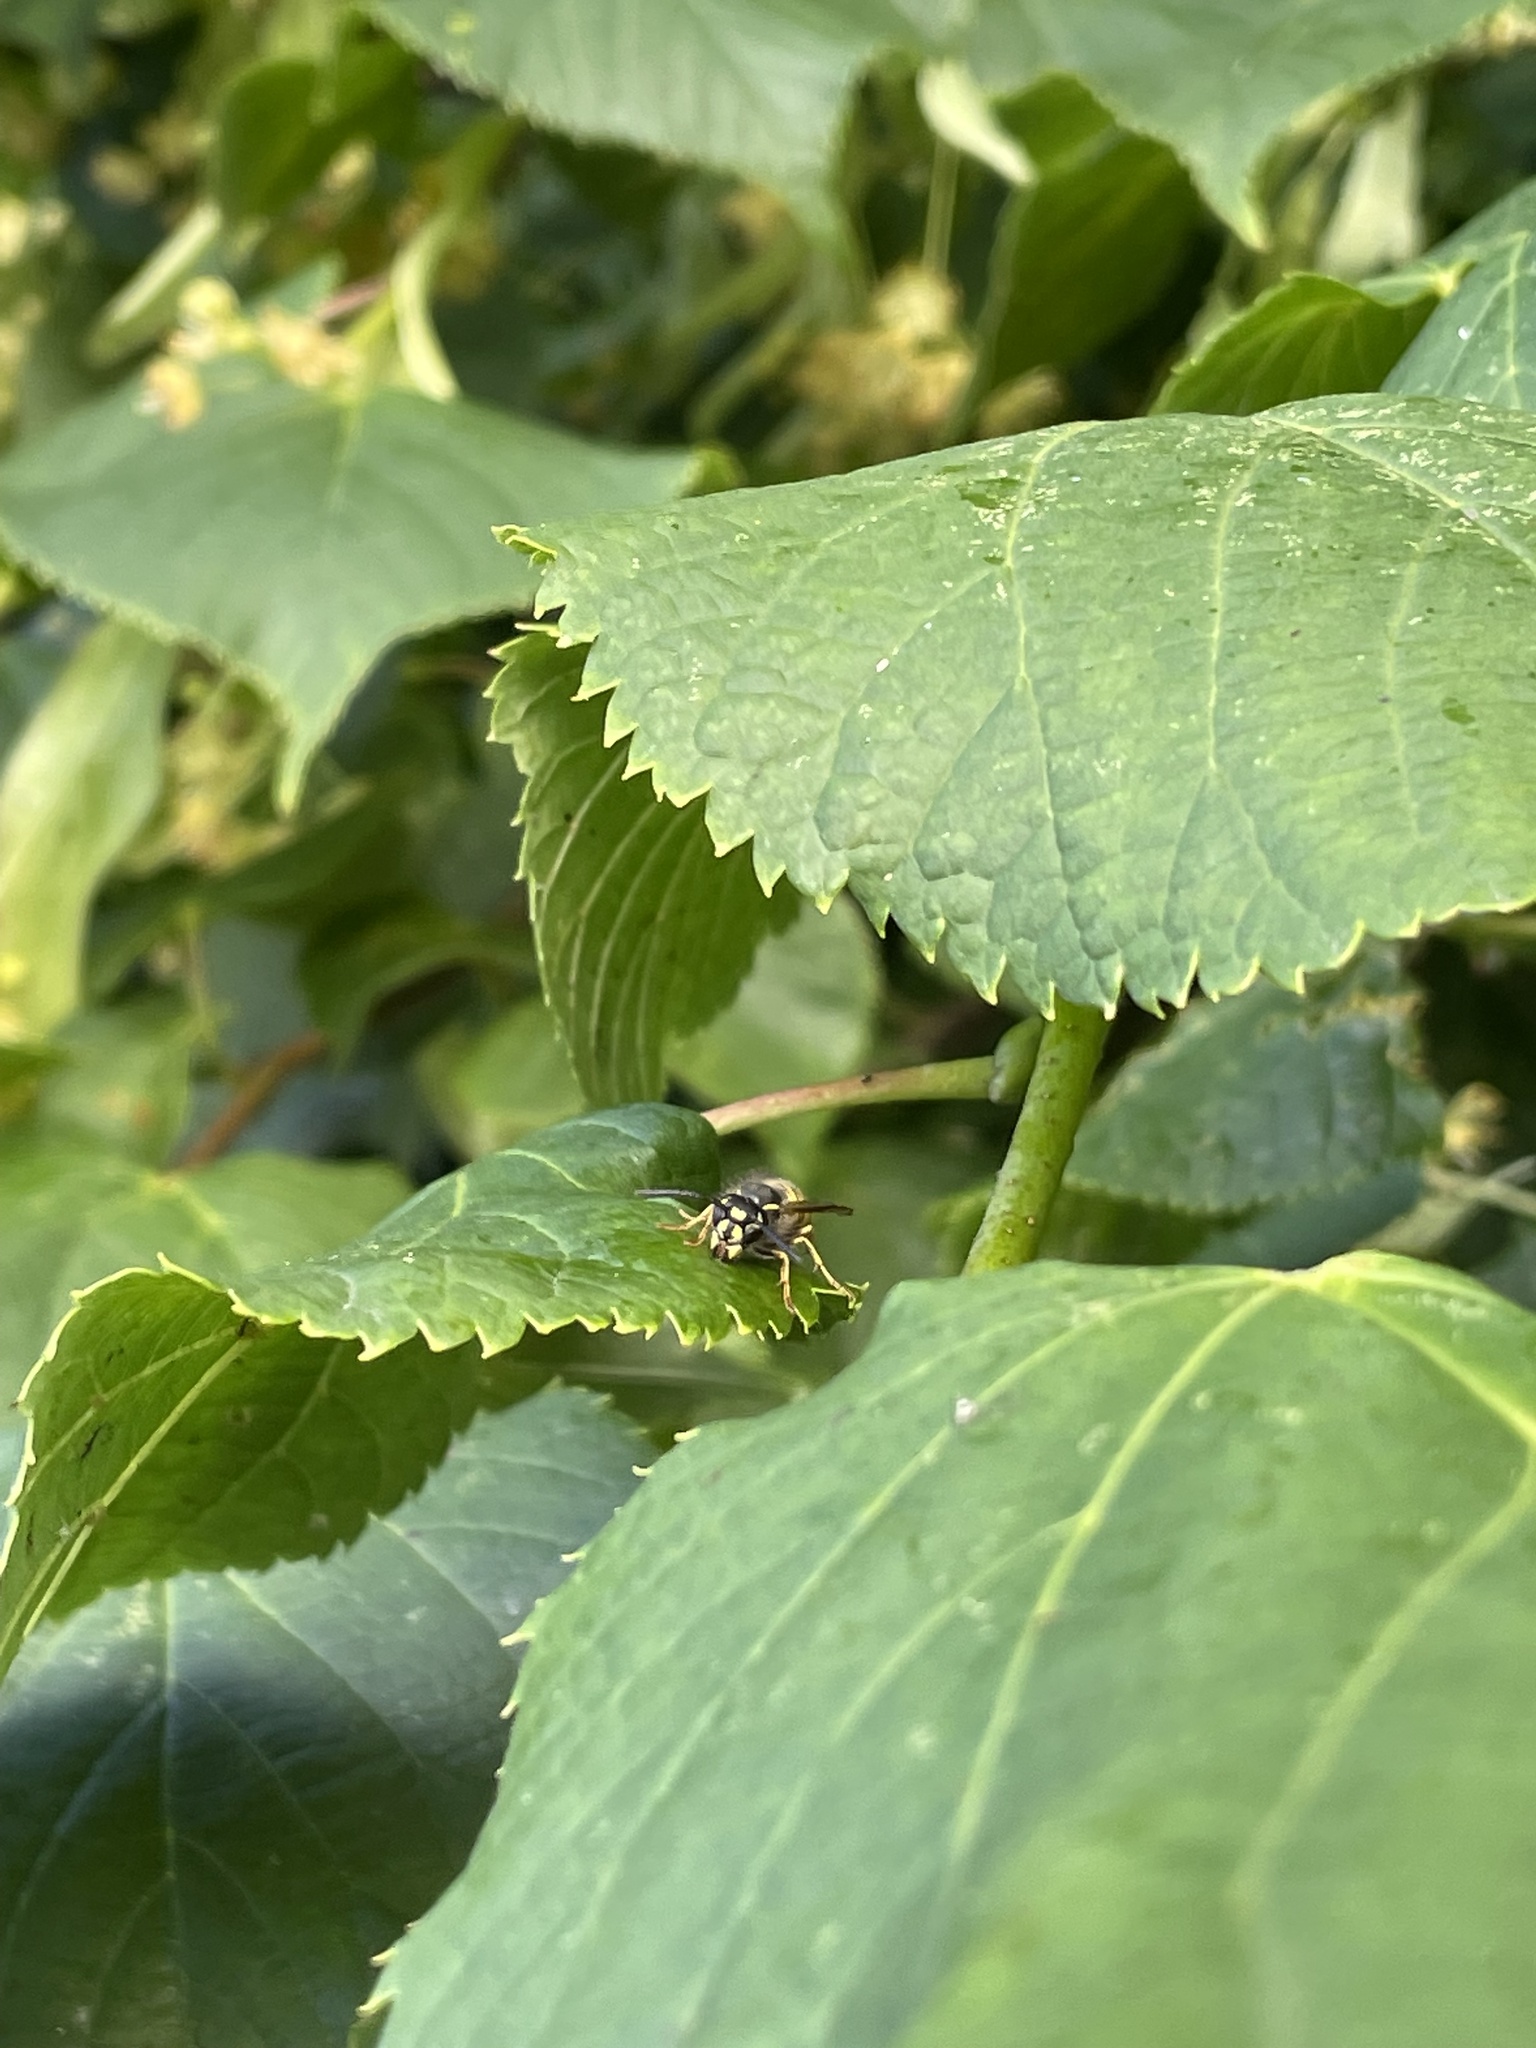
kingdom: Animalia
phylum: Arthropoda
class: Insecta
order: Hymenoptera
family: Vespidae
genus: Vespula
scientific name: Vespula vulgaris
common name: Common wasp
